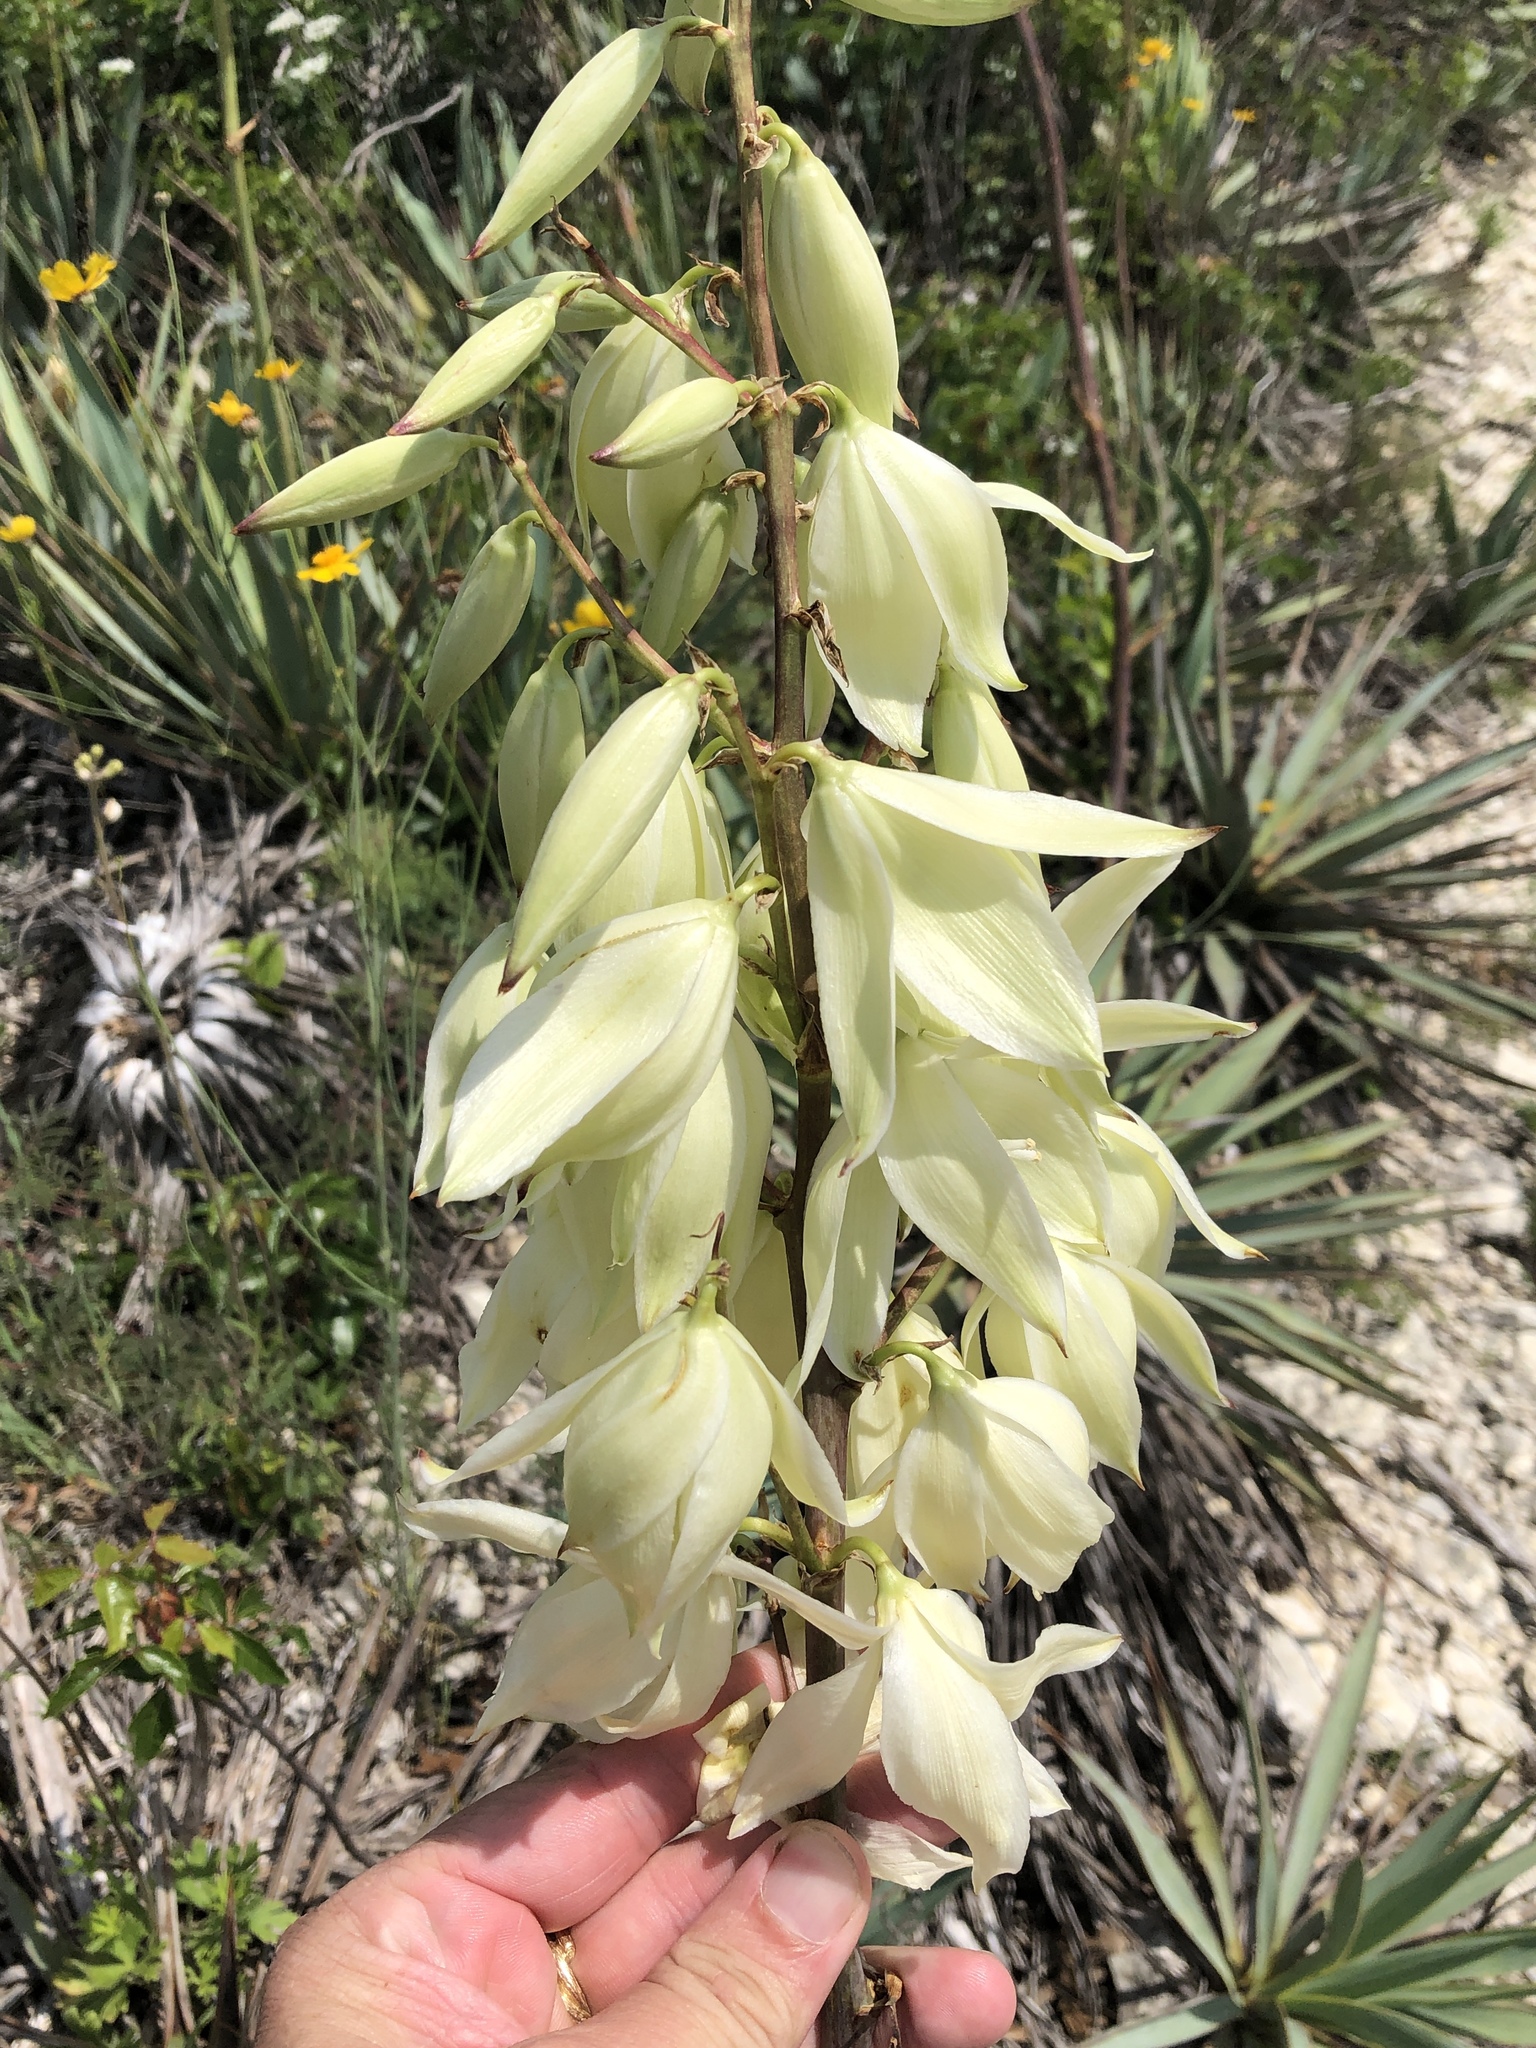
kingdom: Plantae
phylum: Tracheophyta
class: Liliopsida
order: Asparagales
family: Asparagaceae
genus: Yucca
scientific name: Yucca pallida
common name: Pale leaf yucca
